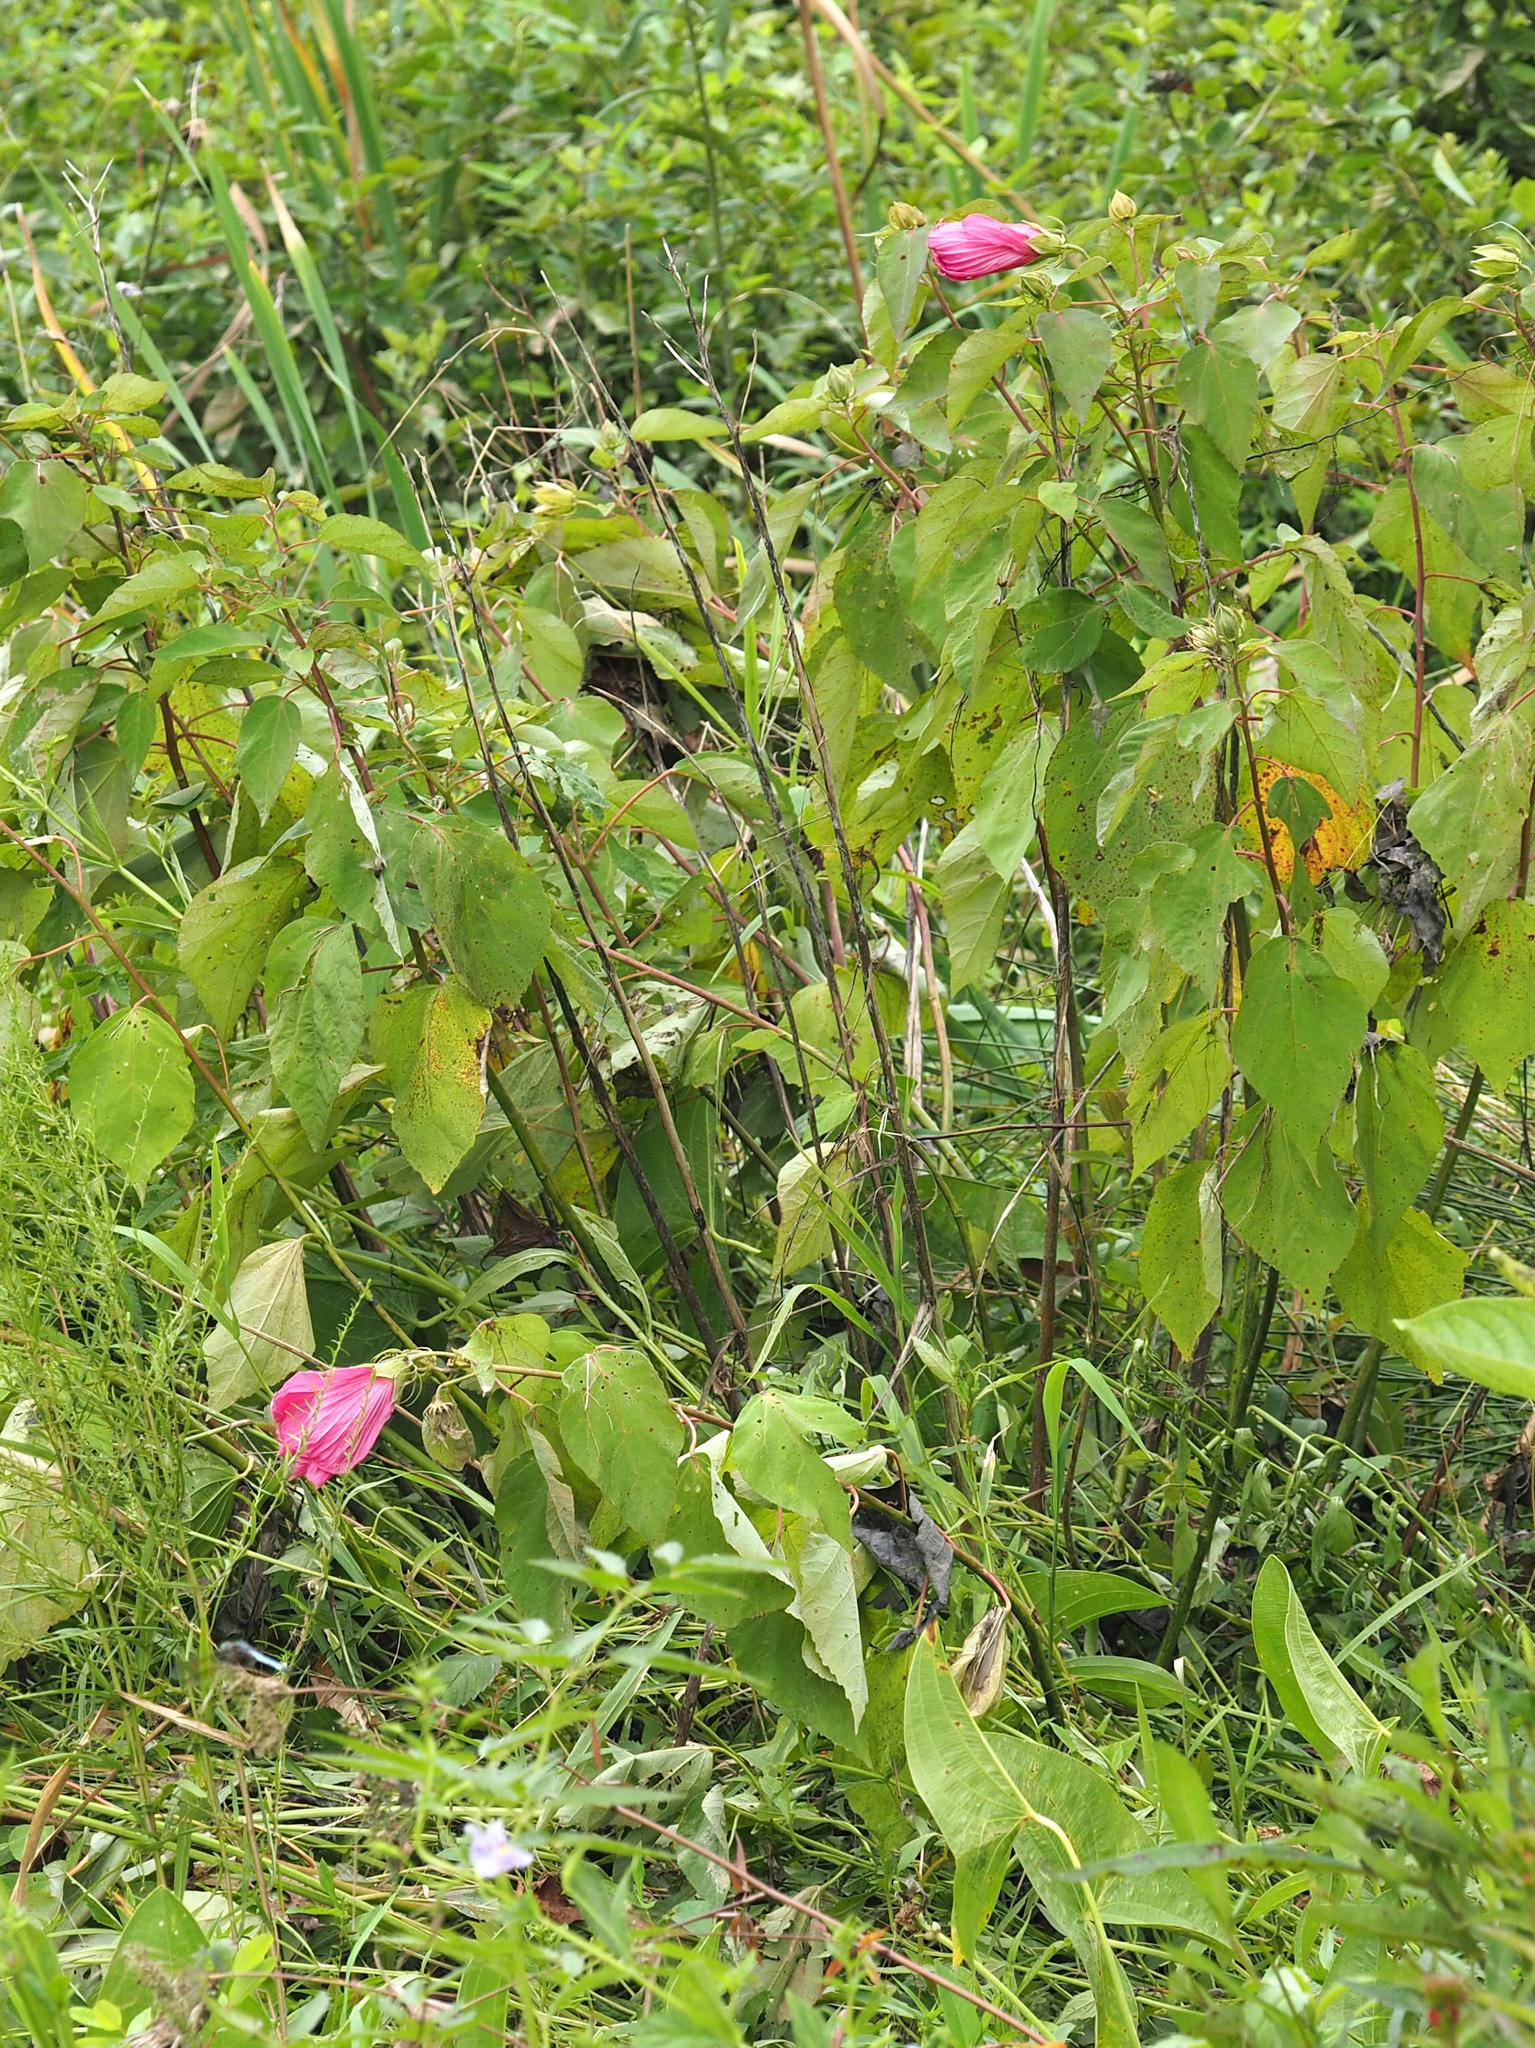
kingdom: Plantae
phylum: Tracheophyta
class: Magnoliopsida
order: Malvales
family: Malvaceae
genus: Hibiscus
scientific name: Hibiscus moscheutos
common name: Common rose-mallow
